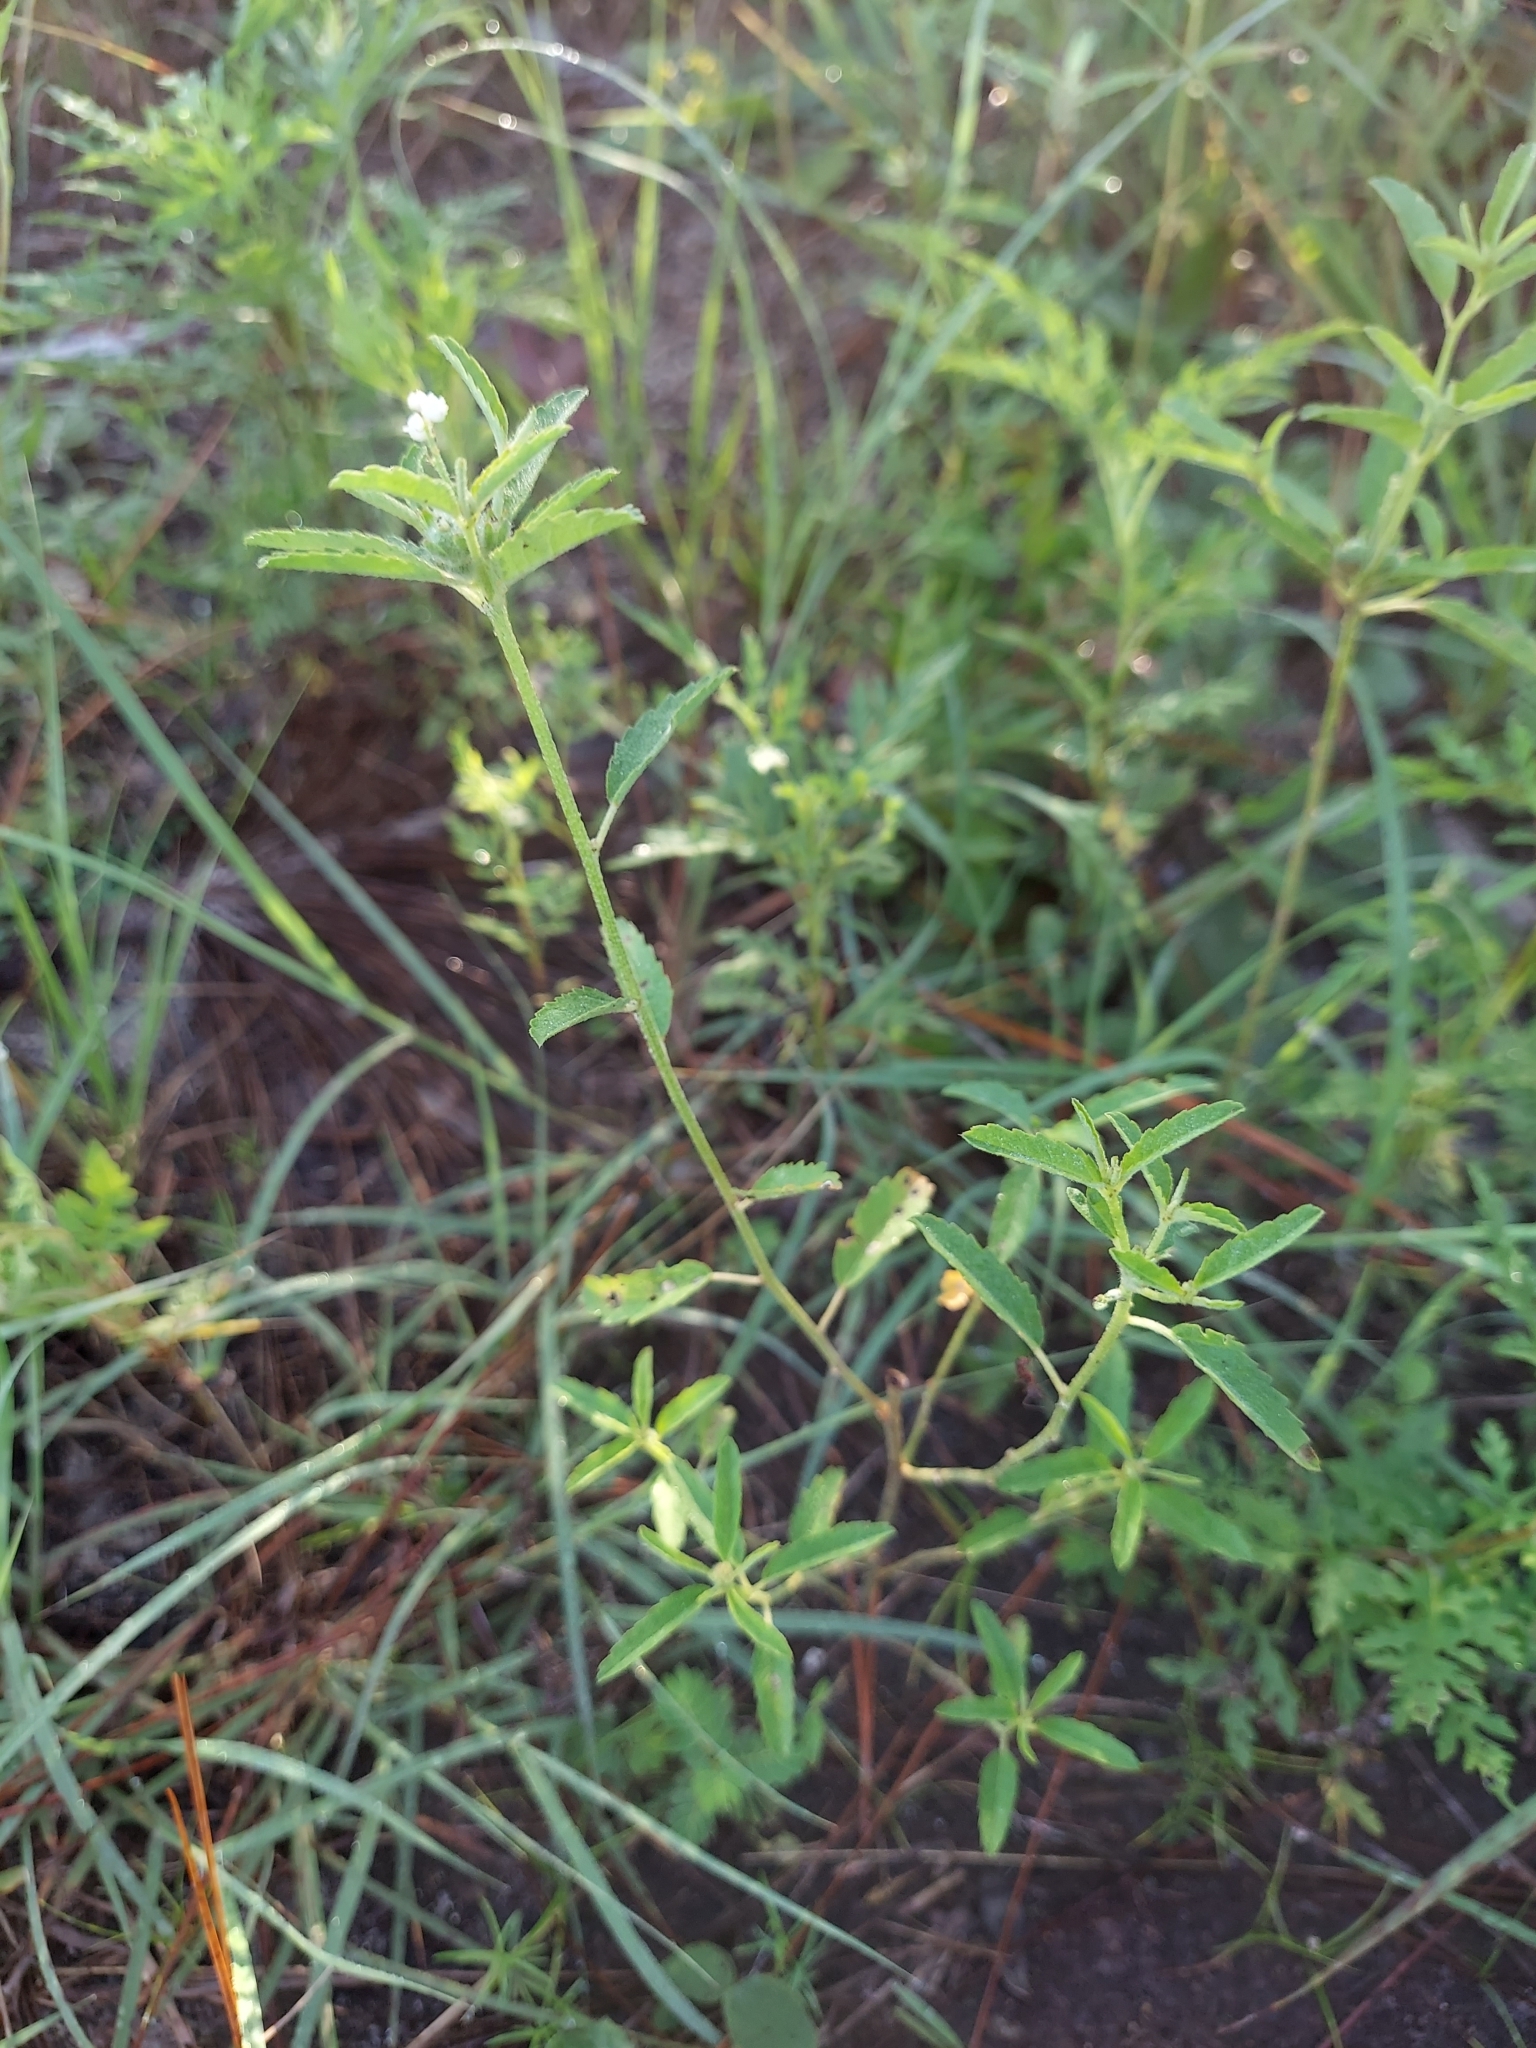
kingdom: Plantae
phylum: Tracheophyta
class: Magnoliopsida
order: Malpighiales
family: Euphorbiaceae
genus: Croton
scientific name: Croton glandulosus
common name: Tropic croton
